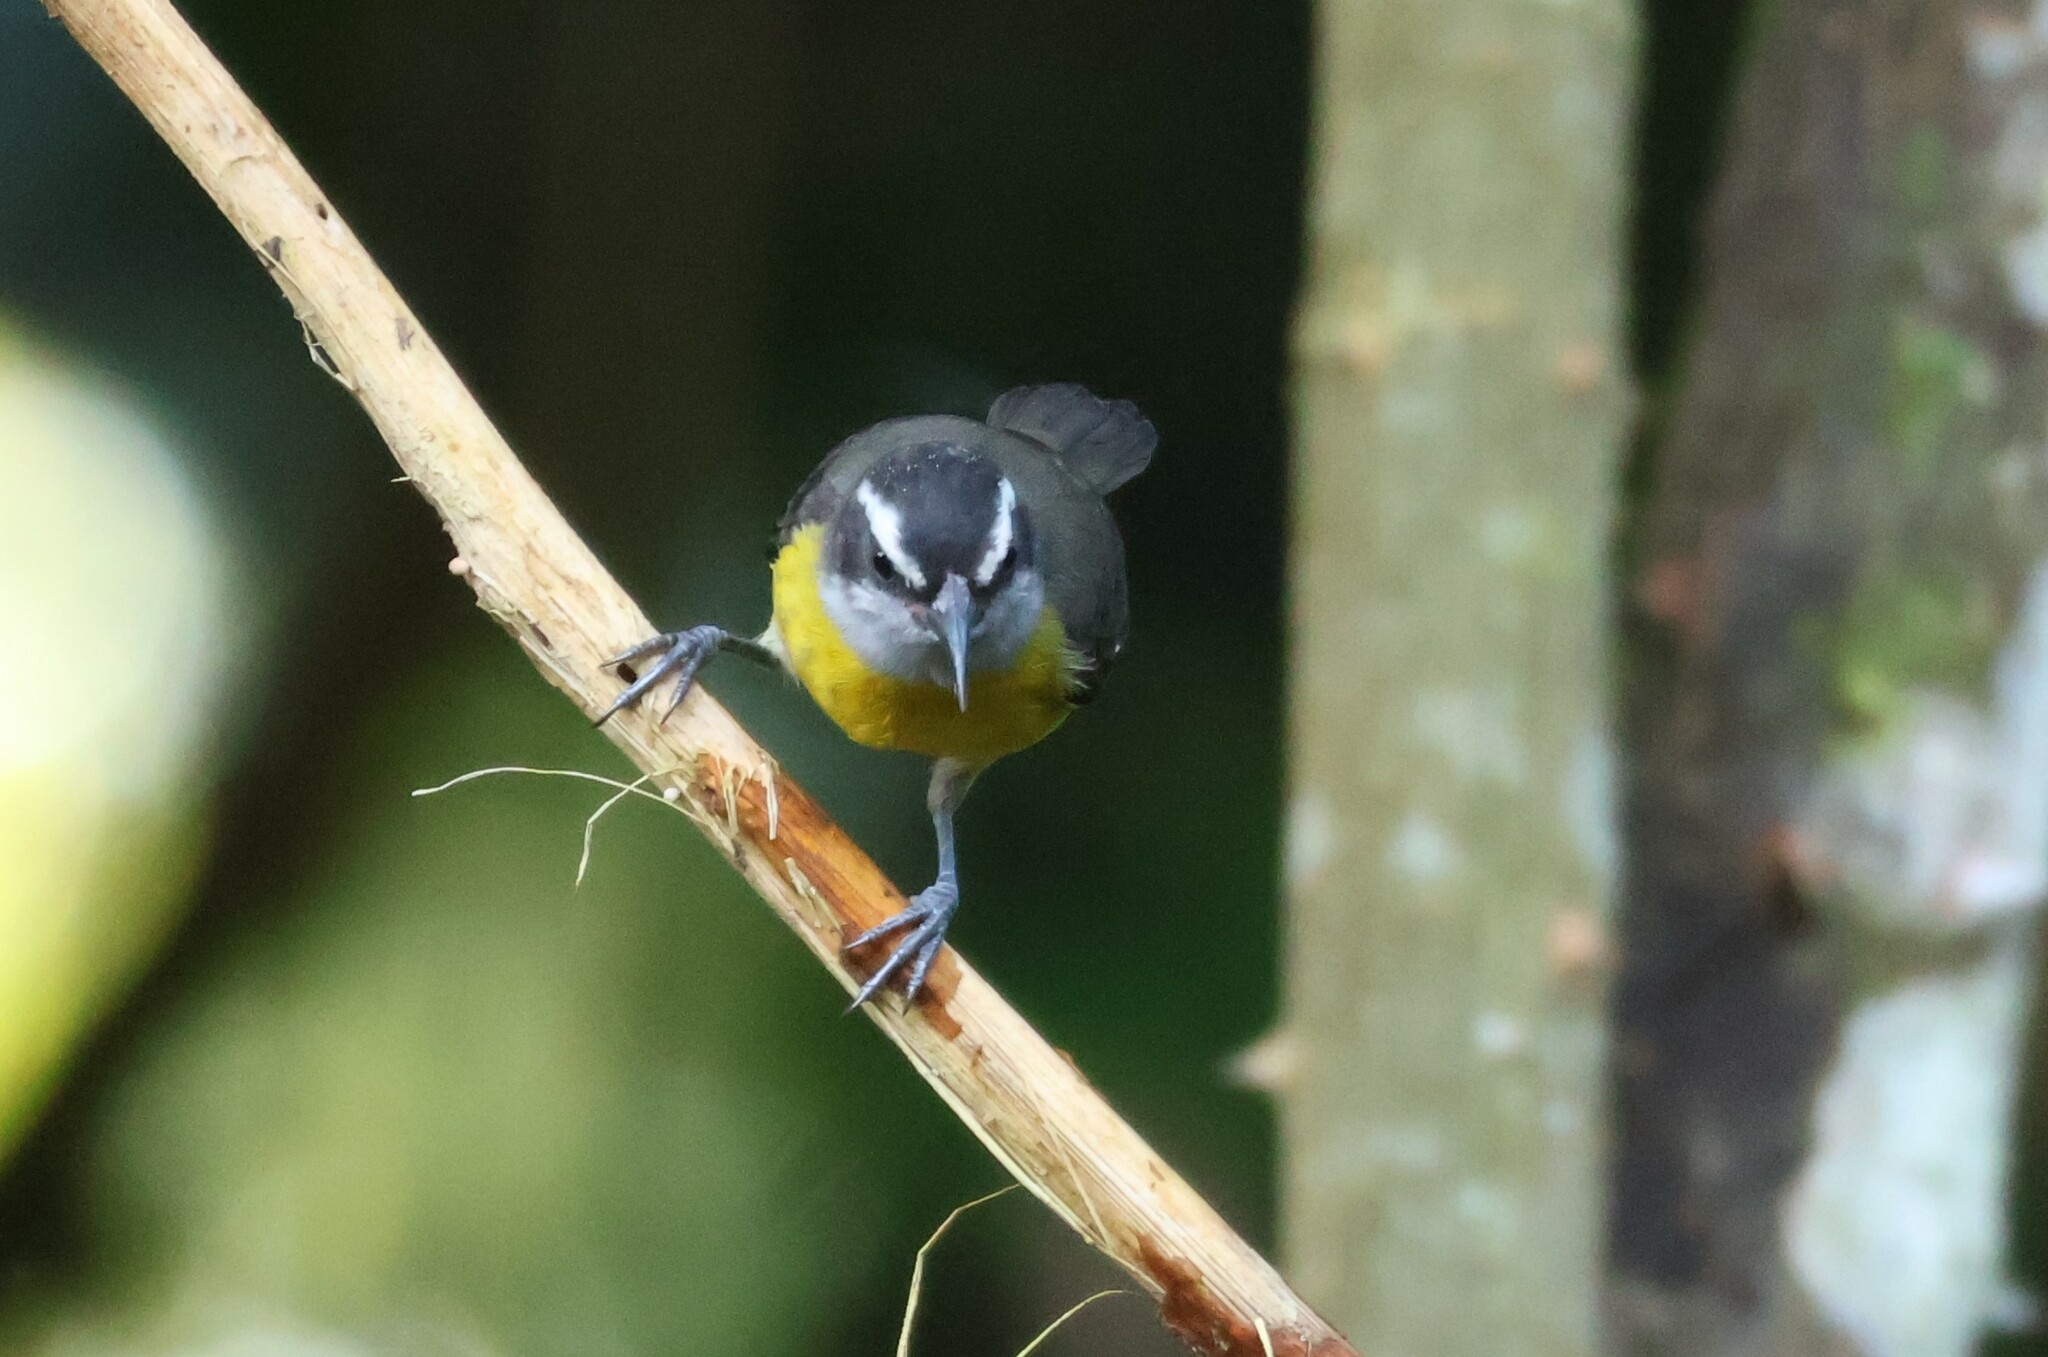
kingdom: Animalia
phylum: Chordata
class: Aves
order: Passeriformes
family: Thraupidae
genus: Coereba
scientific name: Coereba flaveola
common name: Bananaquit
